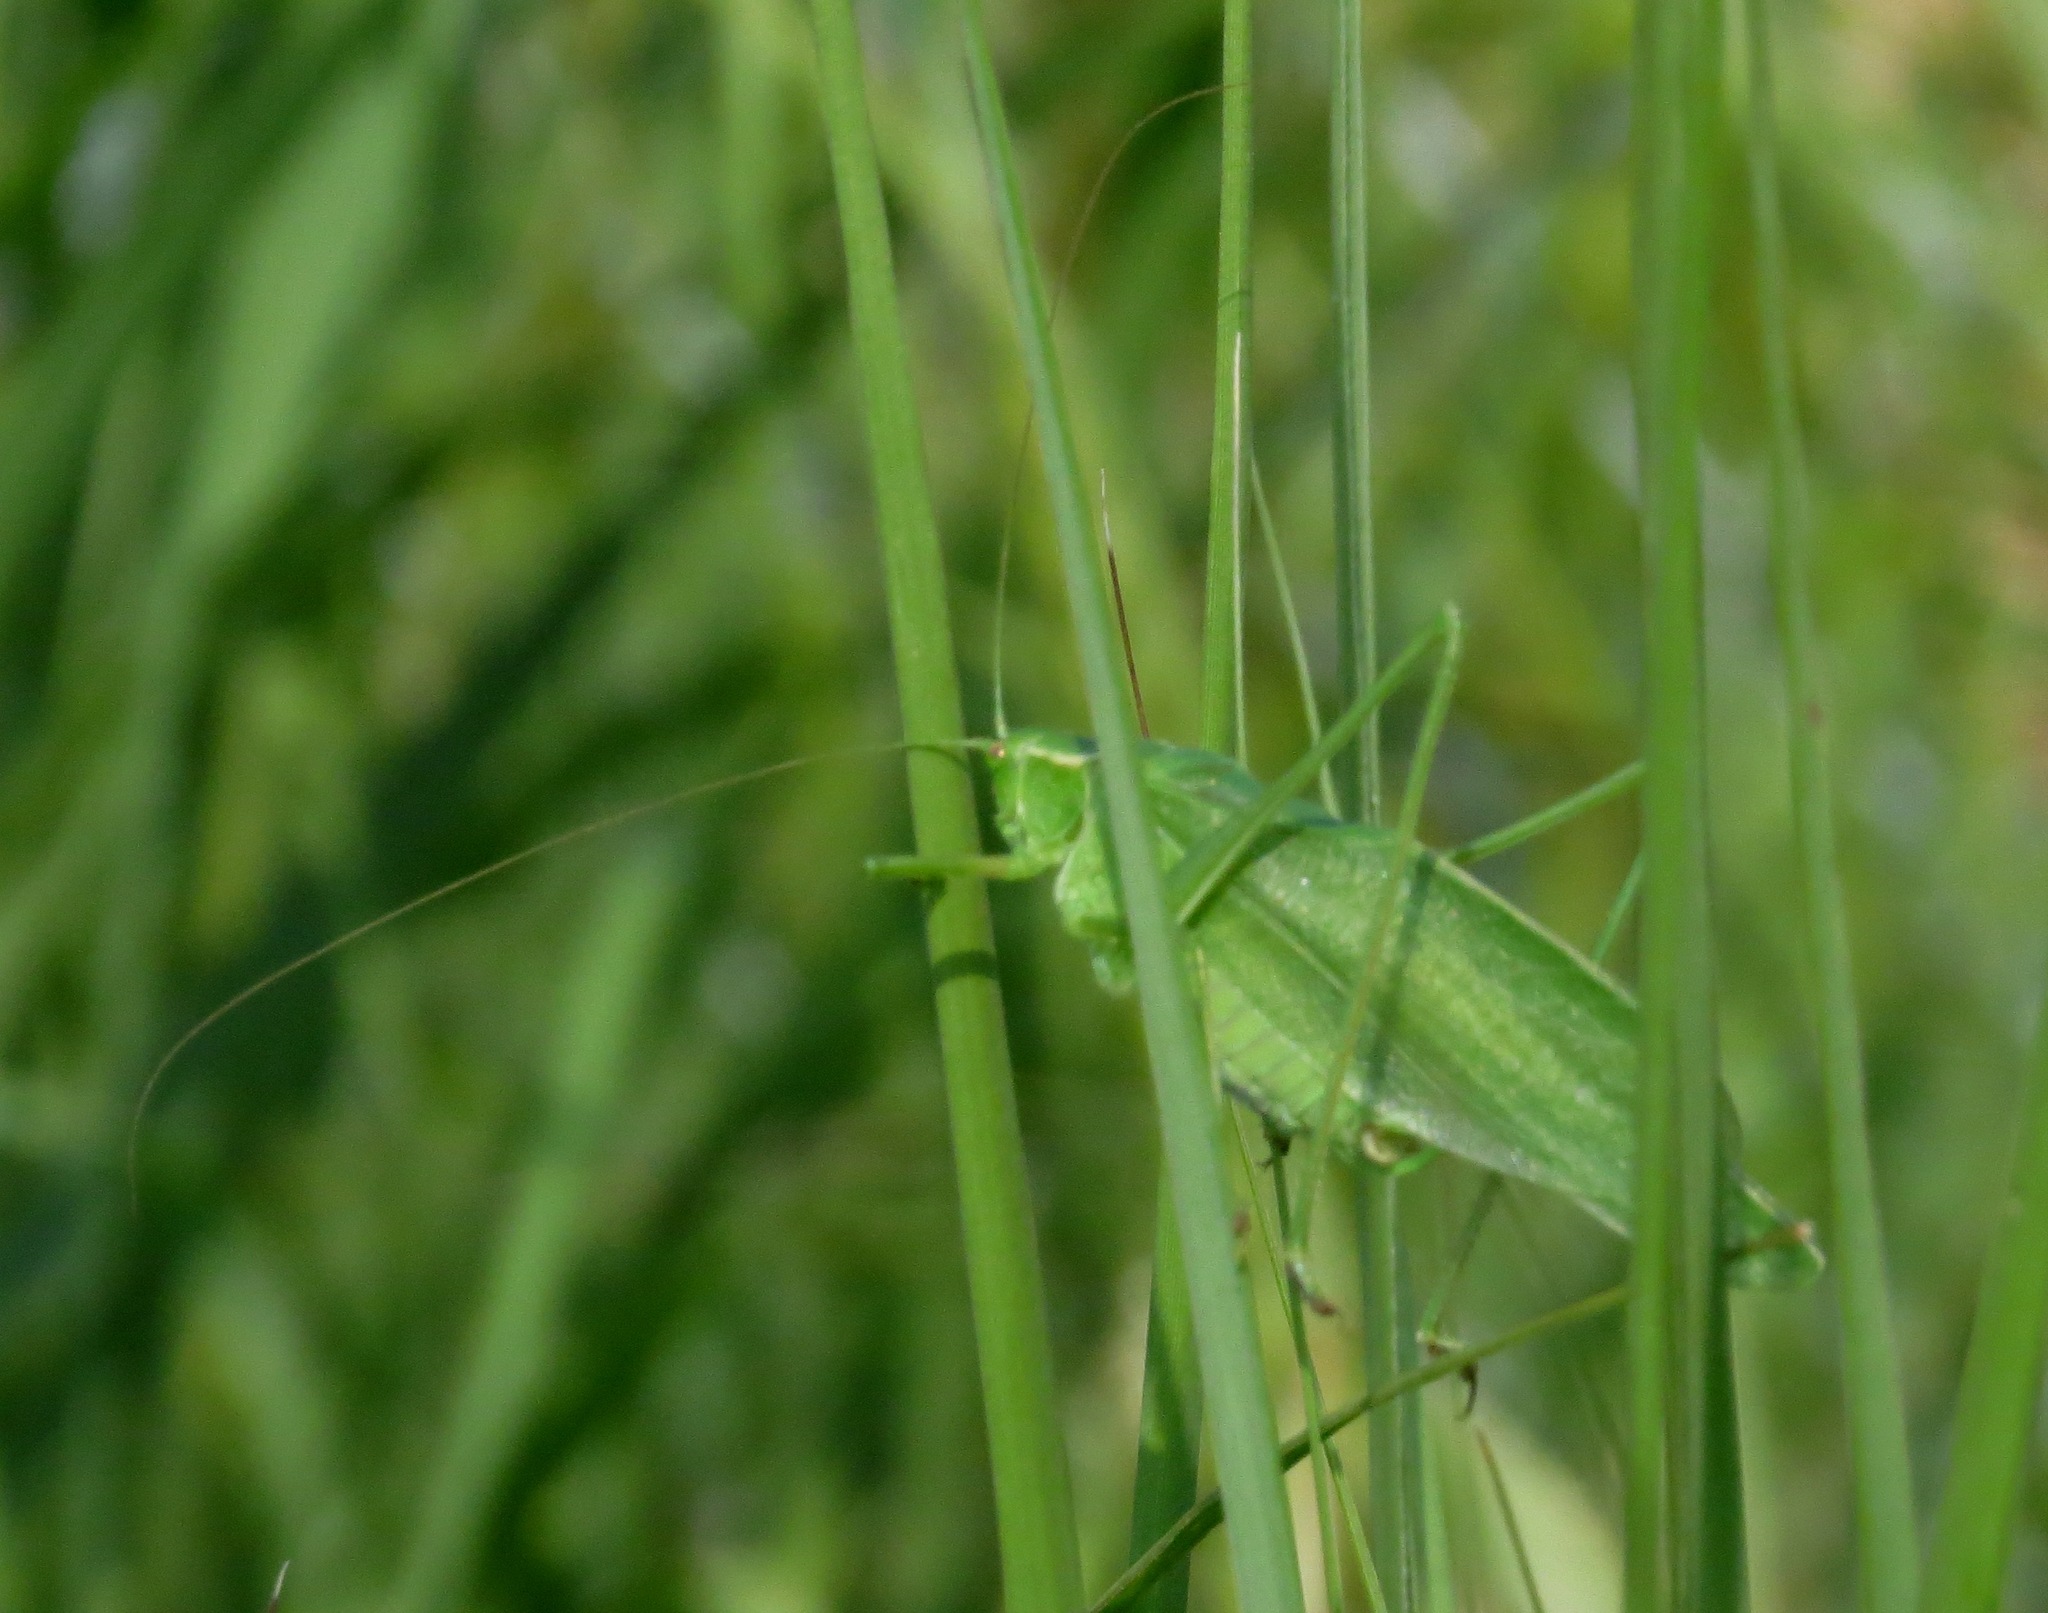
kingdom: Animalia
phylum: Arthropoda
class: Insecta
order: Orthoptera
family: Tettigoniidae
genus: Scudderia
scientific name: Scudderia pistillata
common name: Broad-winged bush-katydid
